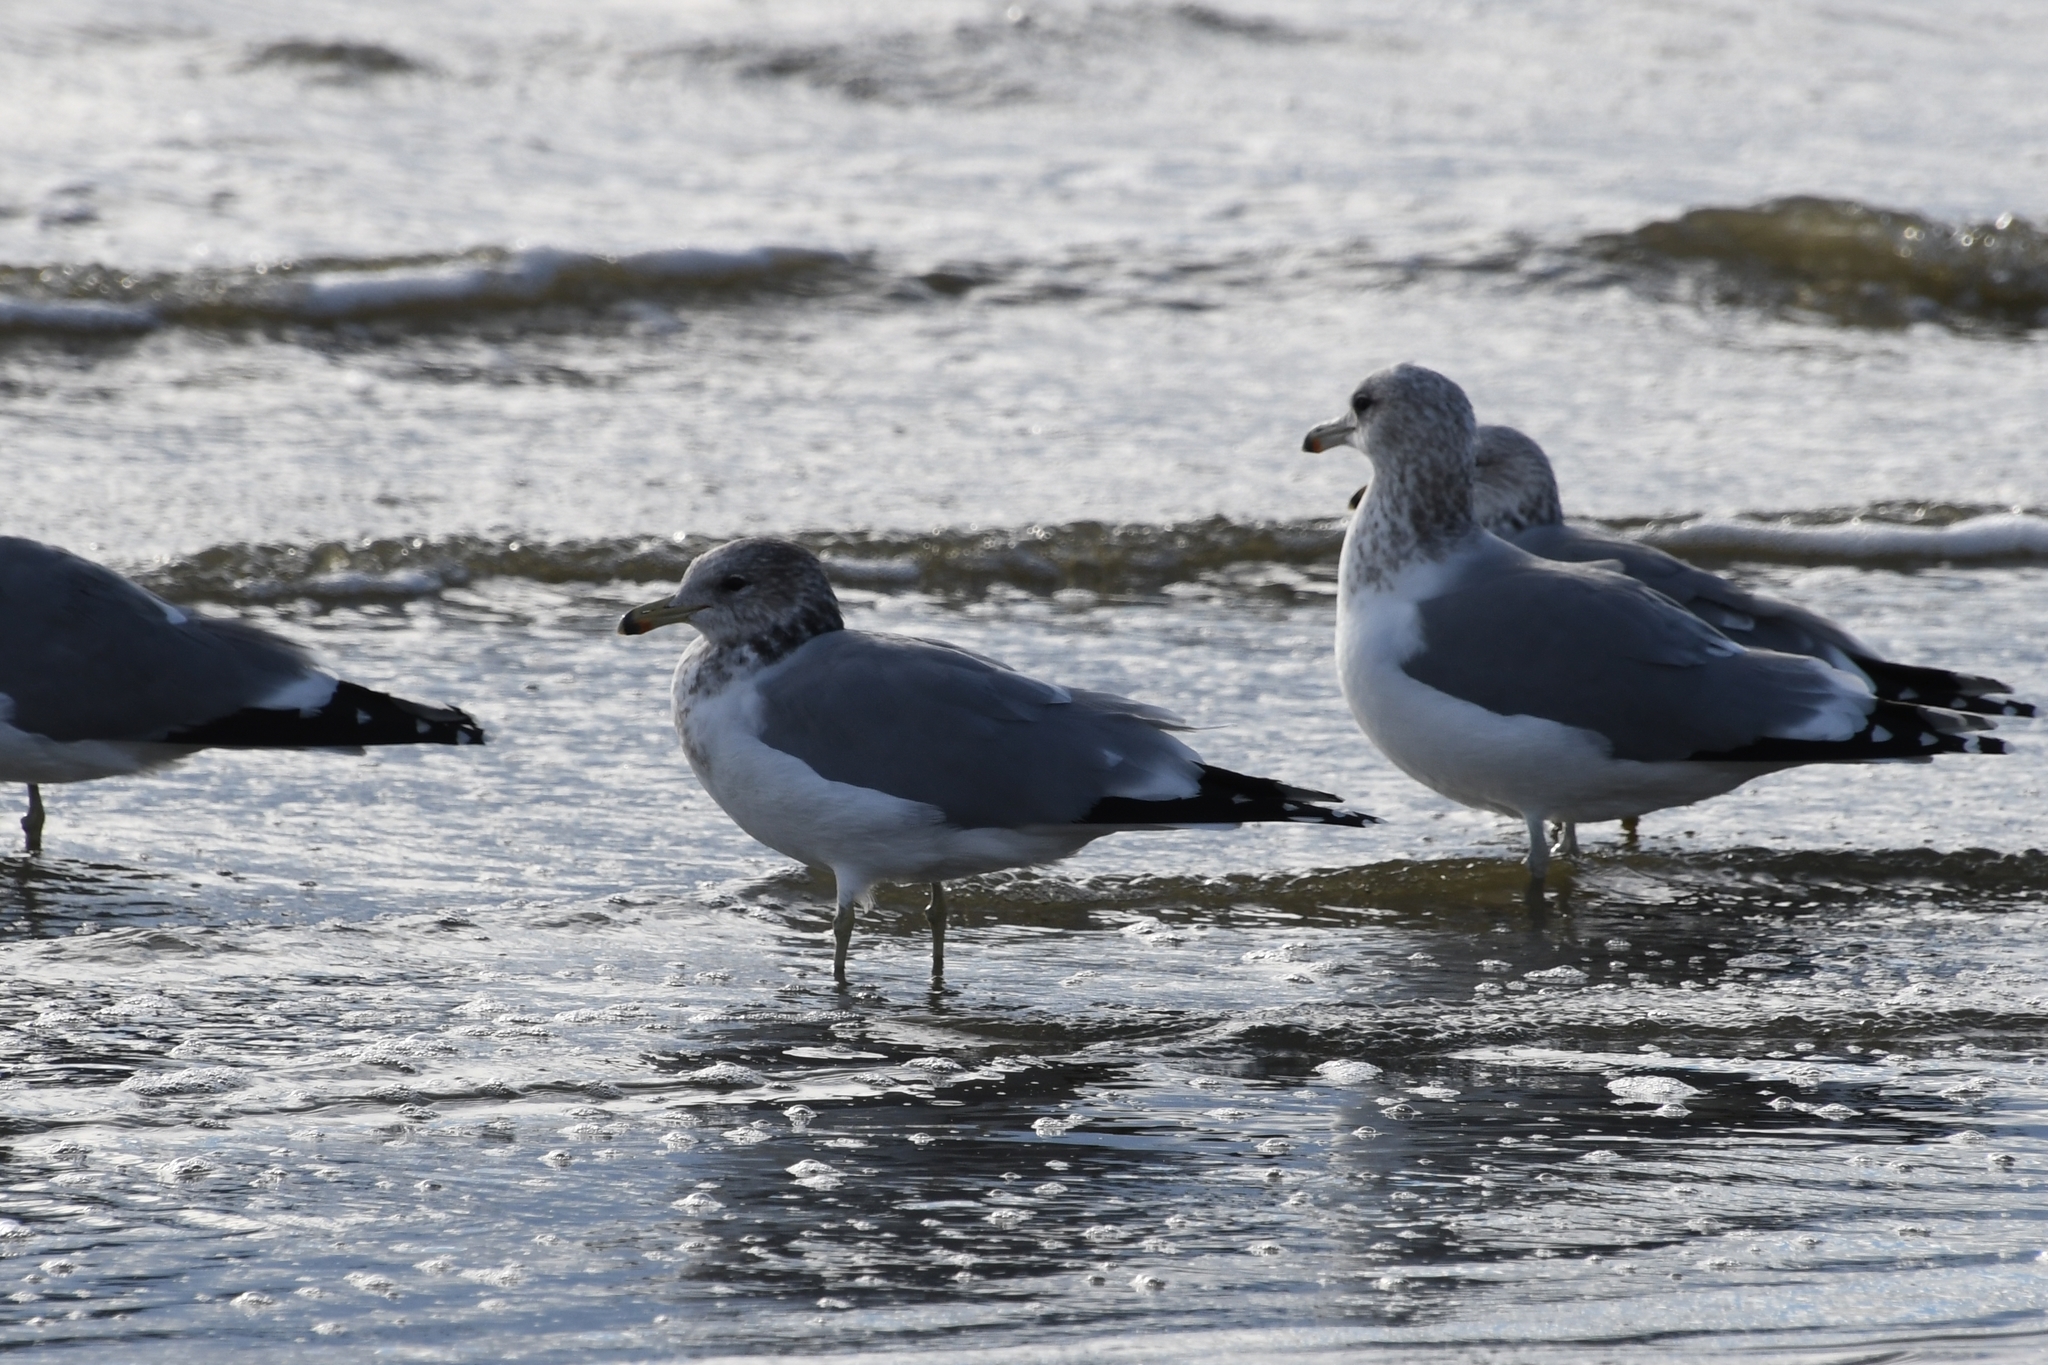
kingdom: Animalia
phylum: Chordata
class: Aves
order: Charadriiformes
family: Laridae
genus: Larus
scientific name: Larus californicus
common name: California gull
